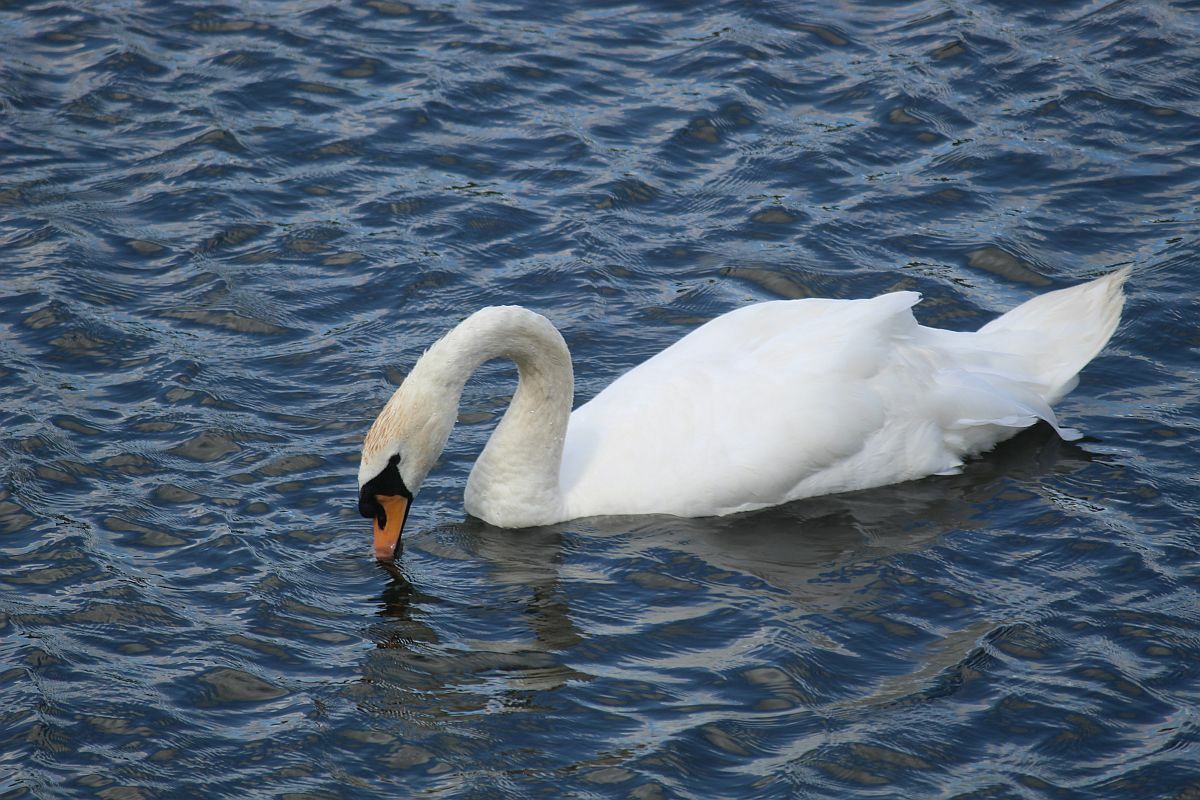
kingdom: Animalia
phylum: Chordata
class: Aves
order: Anseriformes
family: Anatidae
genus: Cygnus
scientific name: Cygnus olor
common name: Mute swan
